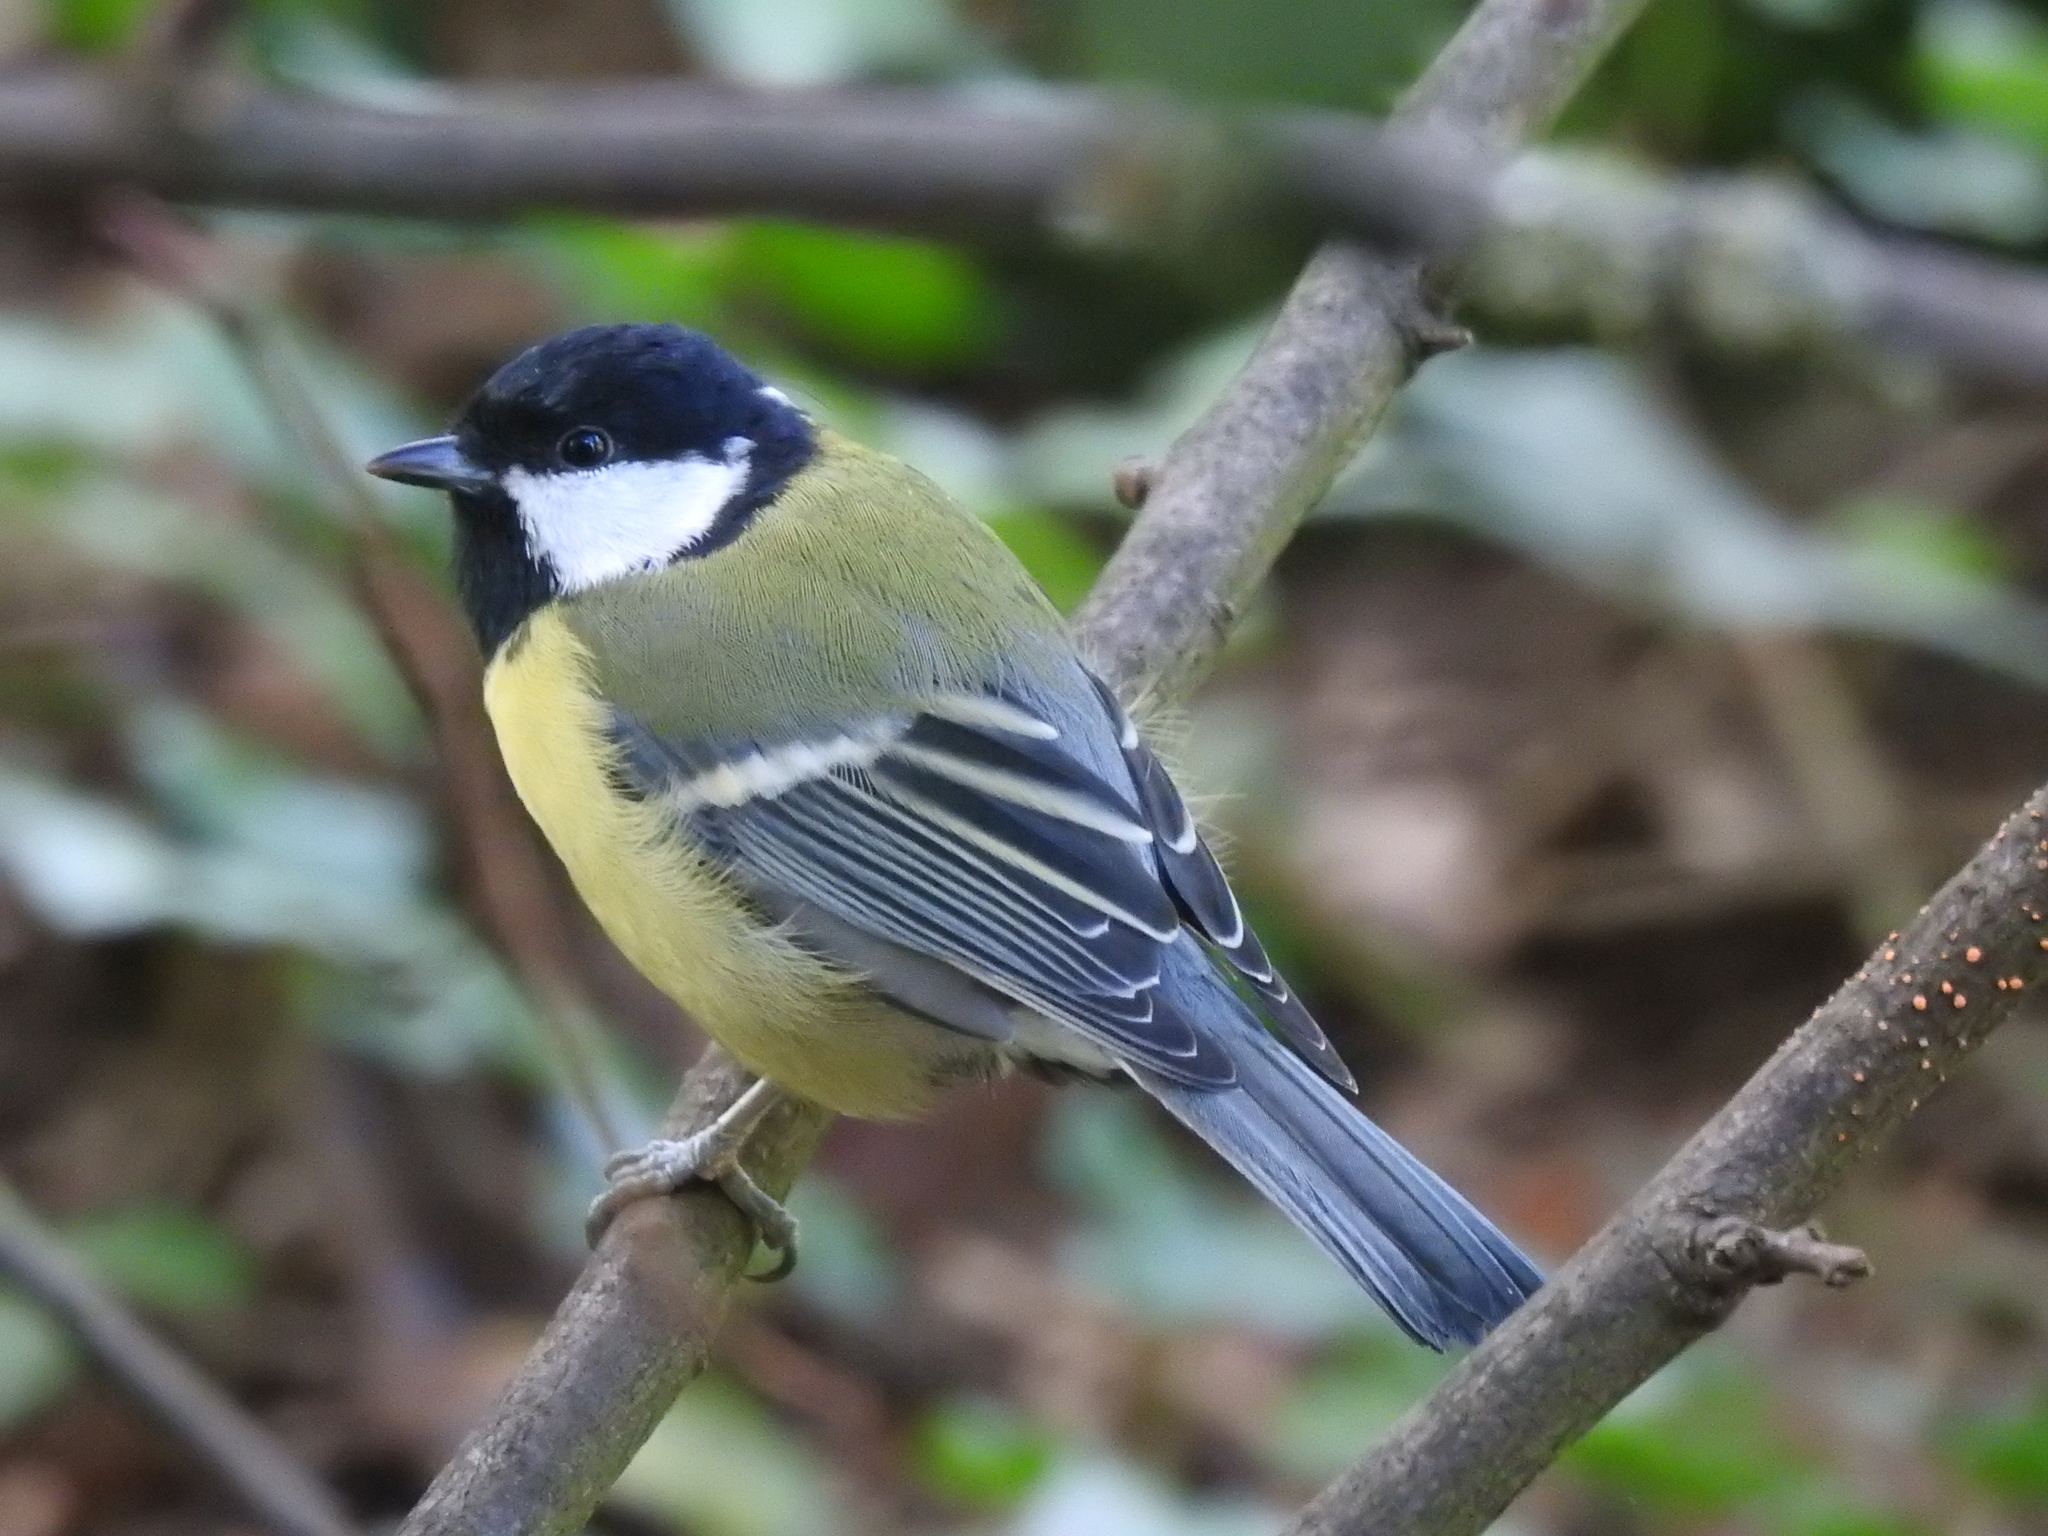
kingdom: Animalia
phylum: Chordata
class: Aves
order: Passeriformes
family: Paridae
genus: Parus
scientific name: Parus major
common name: Great tit
